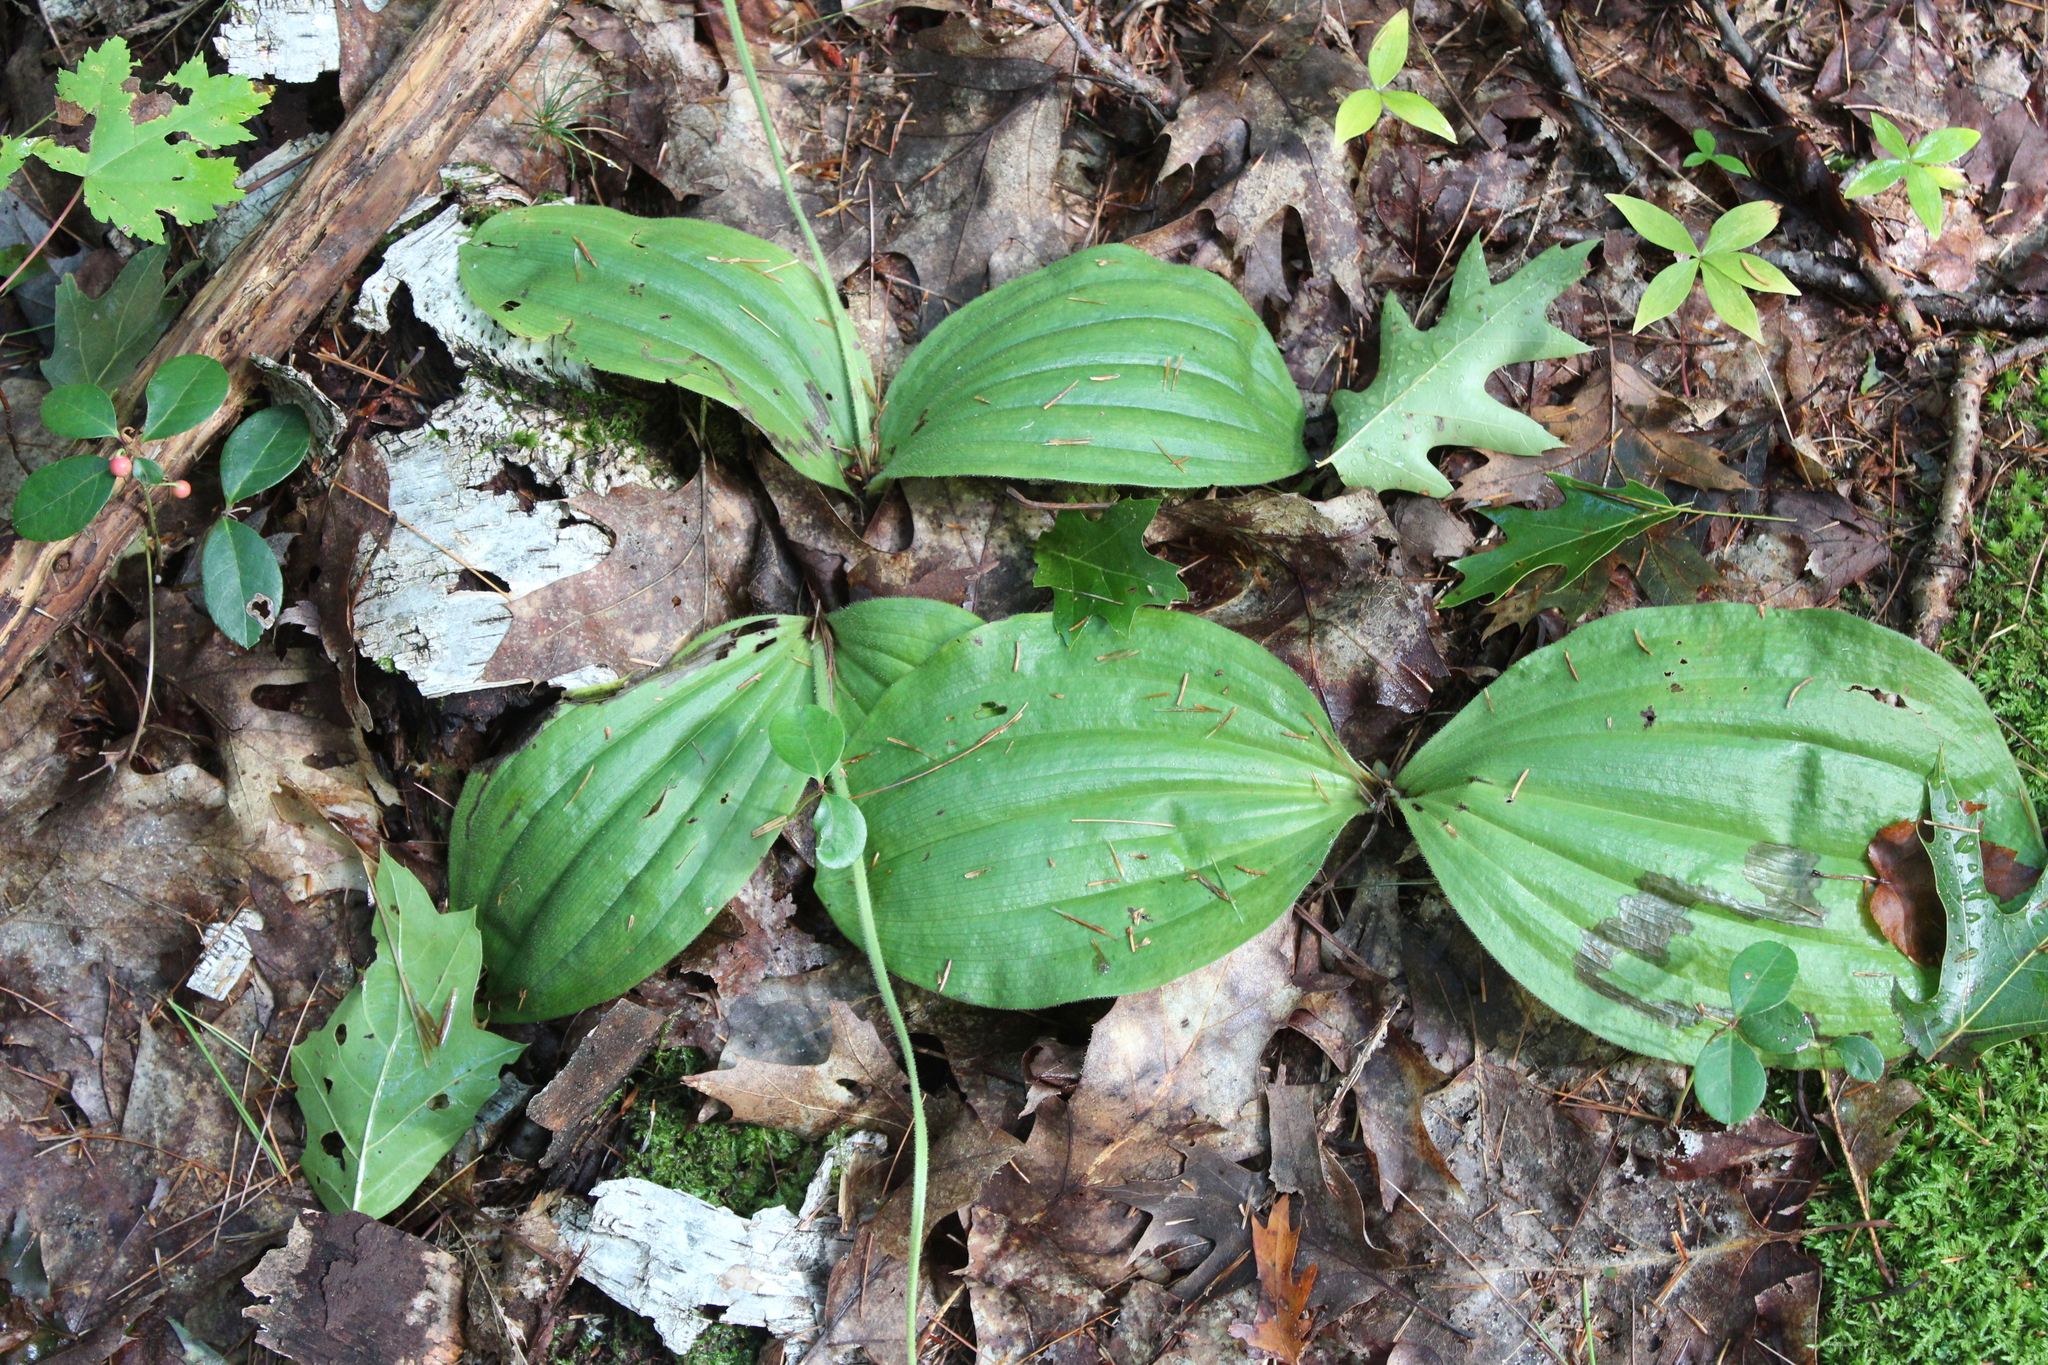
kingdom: Plantae
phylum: Tracheophyta
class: Liliopsida
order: Asparagales
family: Orchidaceae
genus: Cypripedium
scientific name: Cypripedium acaule
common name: Pink lady's-slipper
